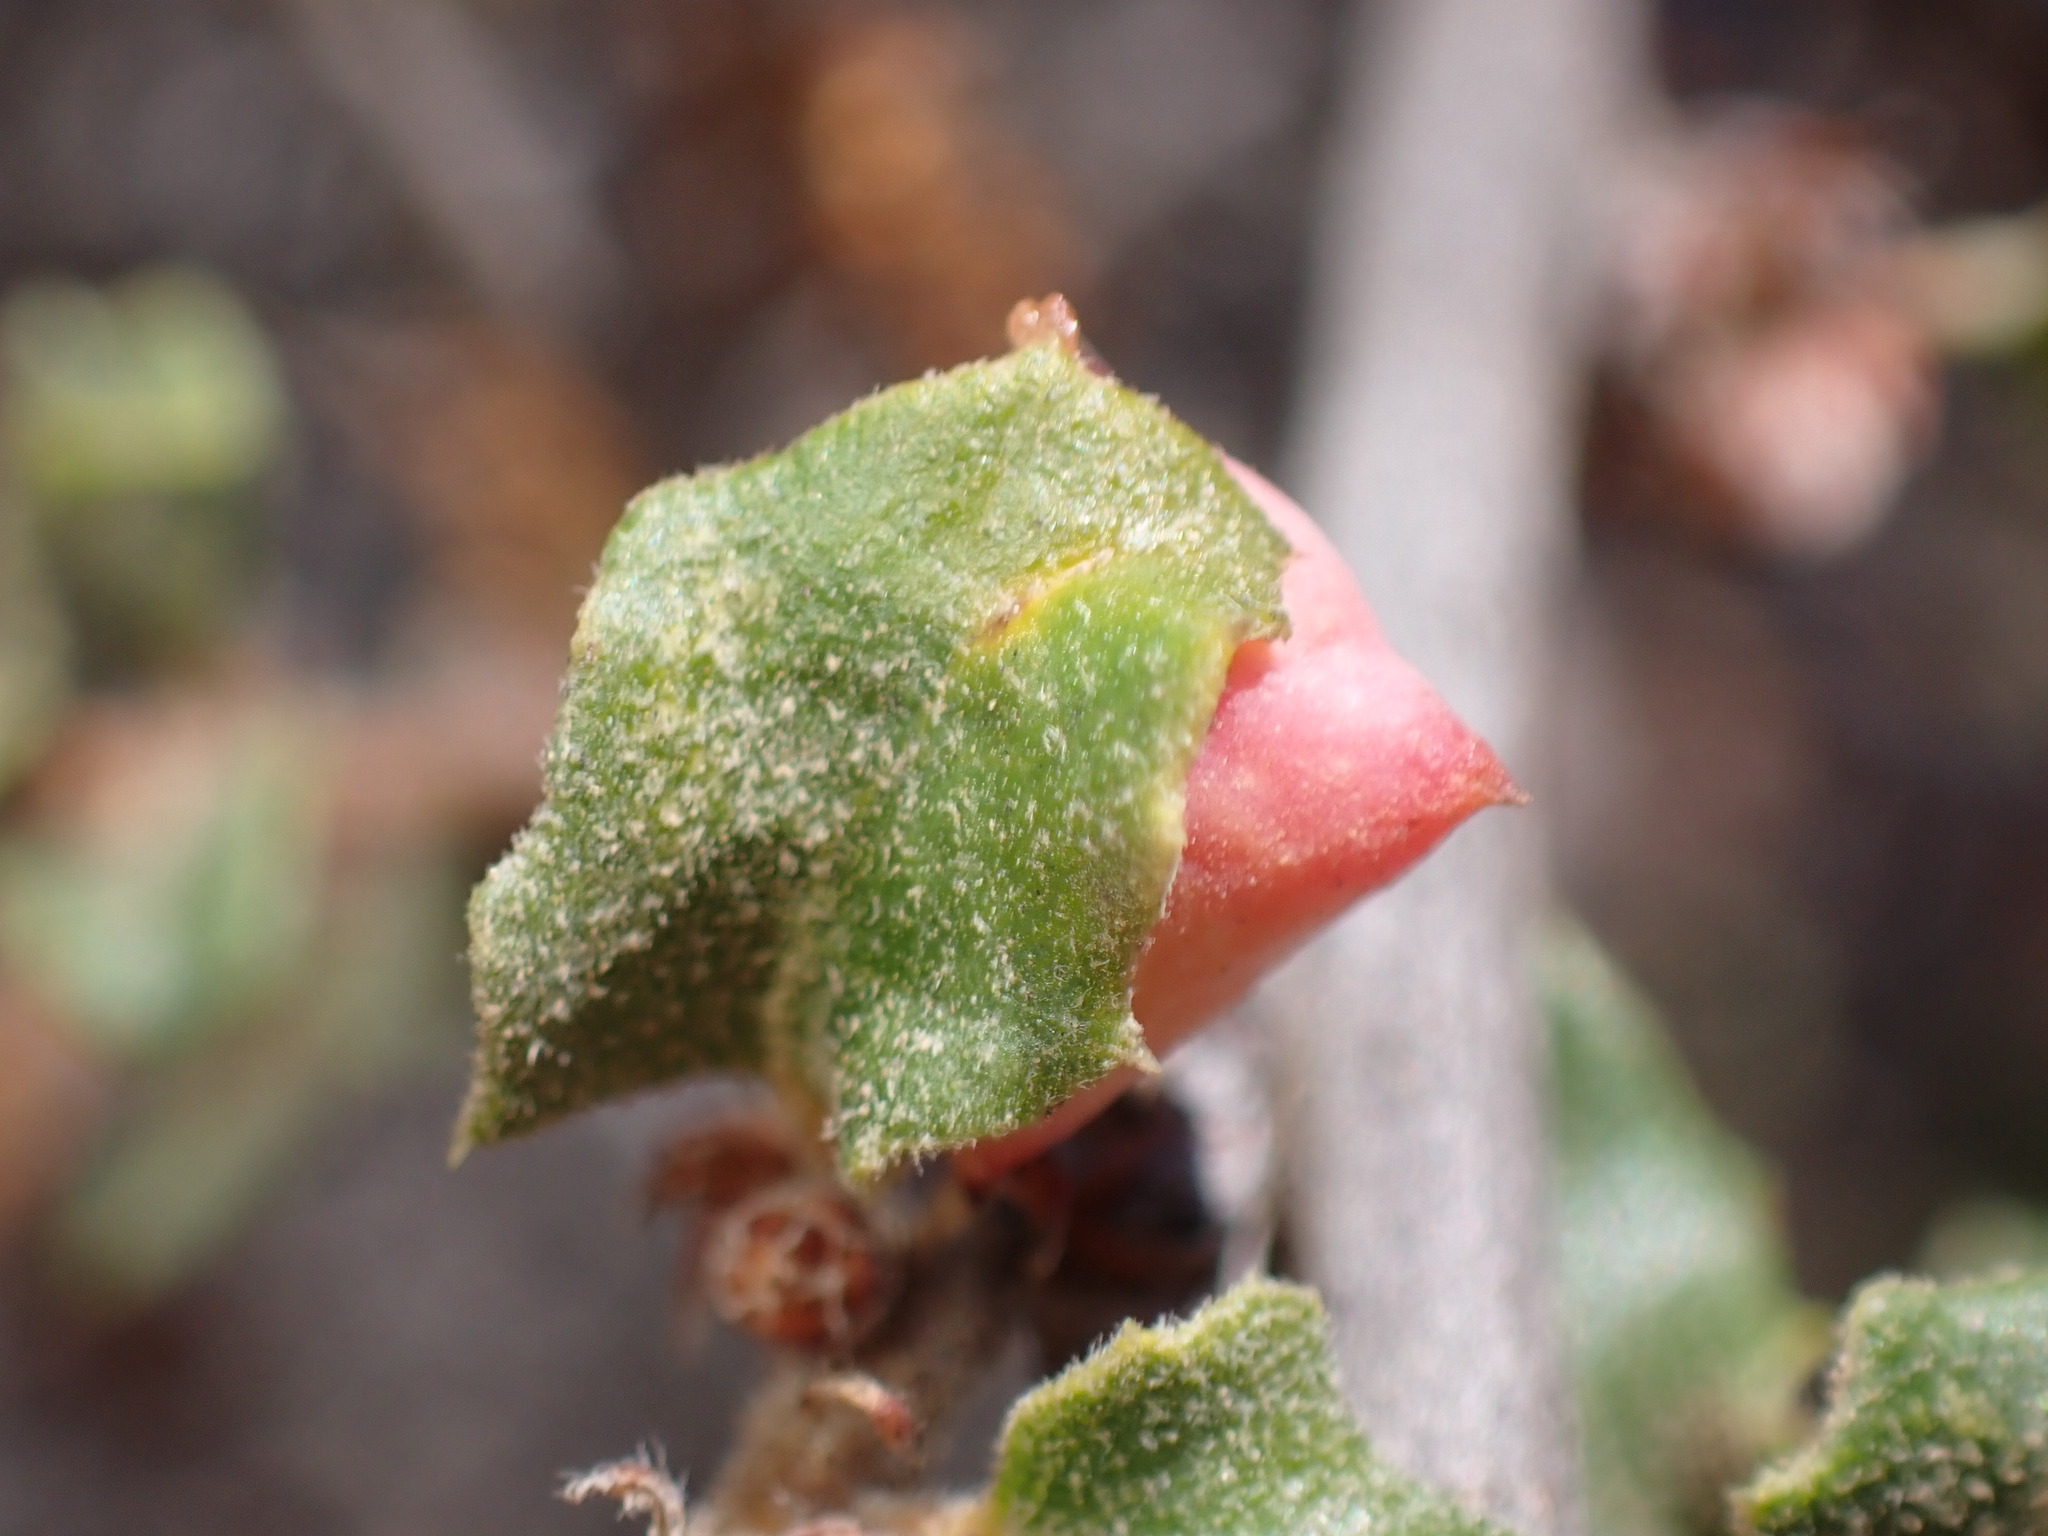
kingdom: Animalia
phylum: Arthropoda
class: Insecta
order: Hymenoptera
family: Cynipidae
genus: Cynips
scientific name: Cynips douglasi
